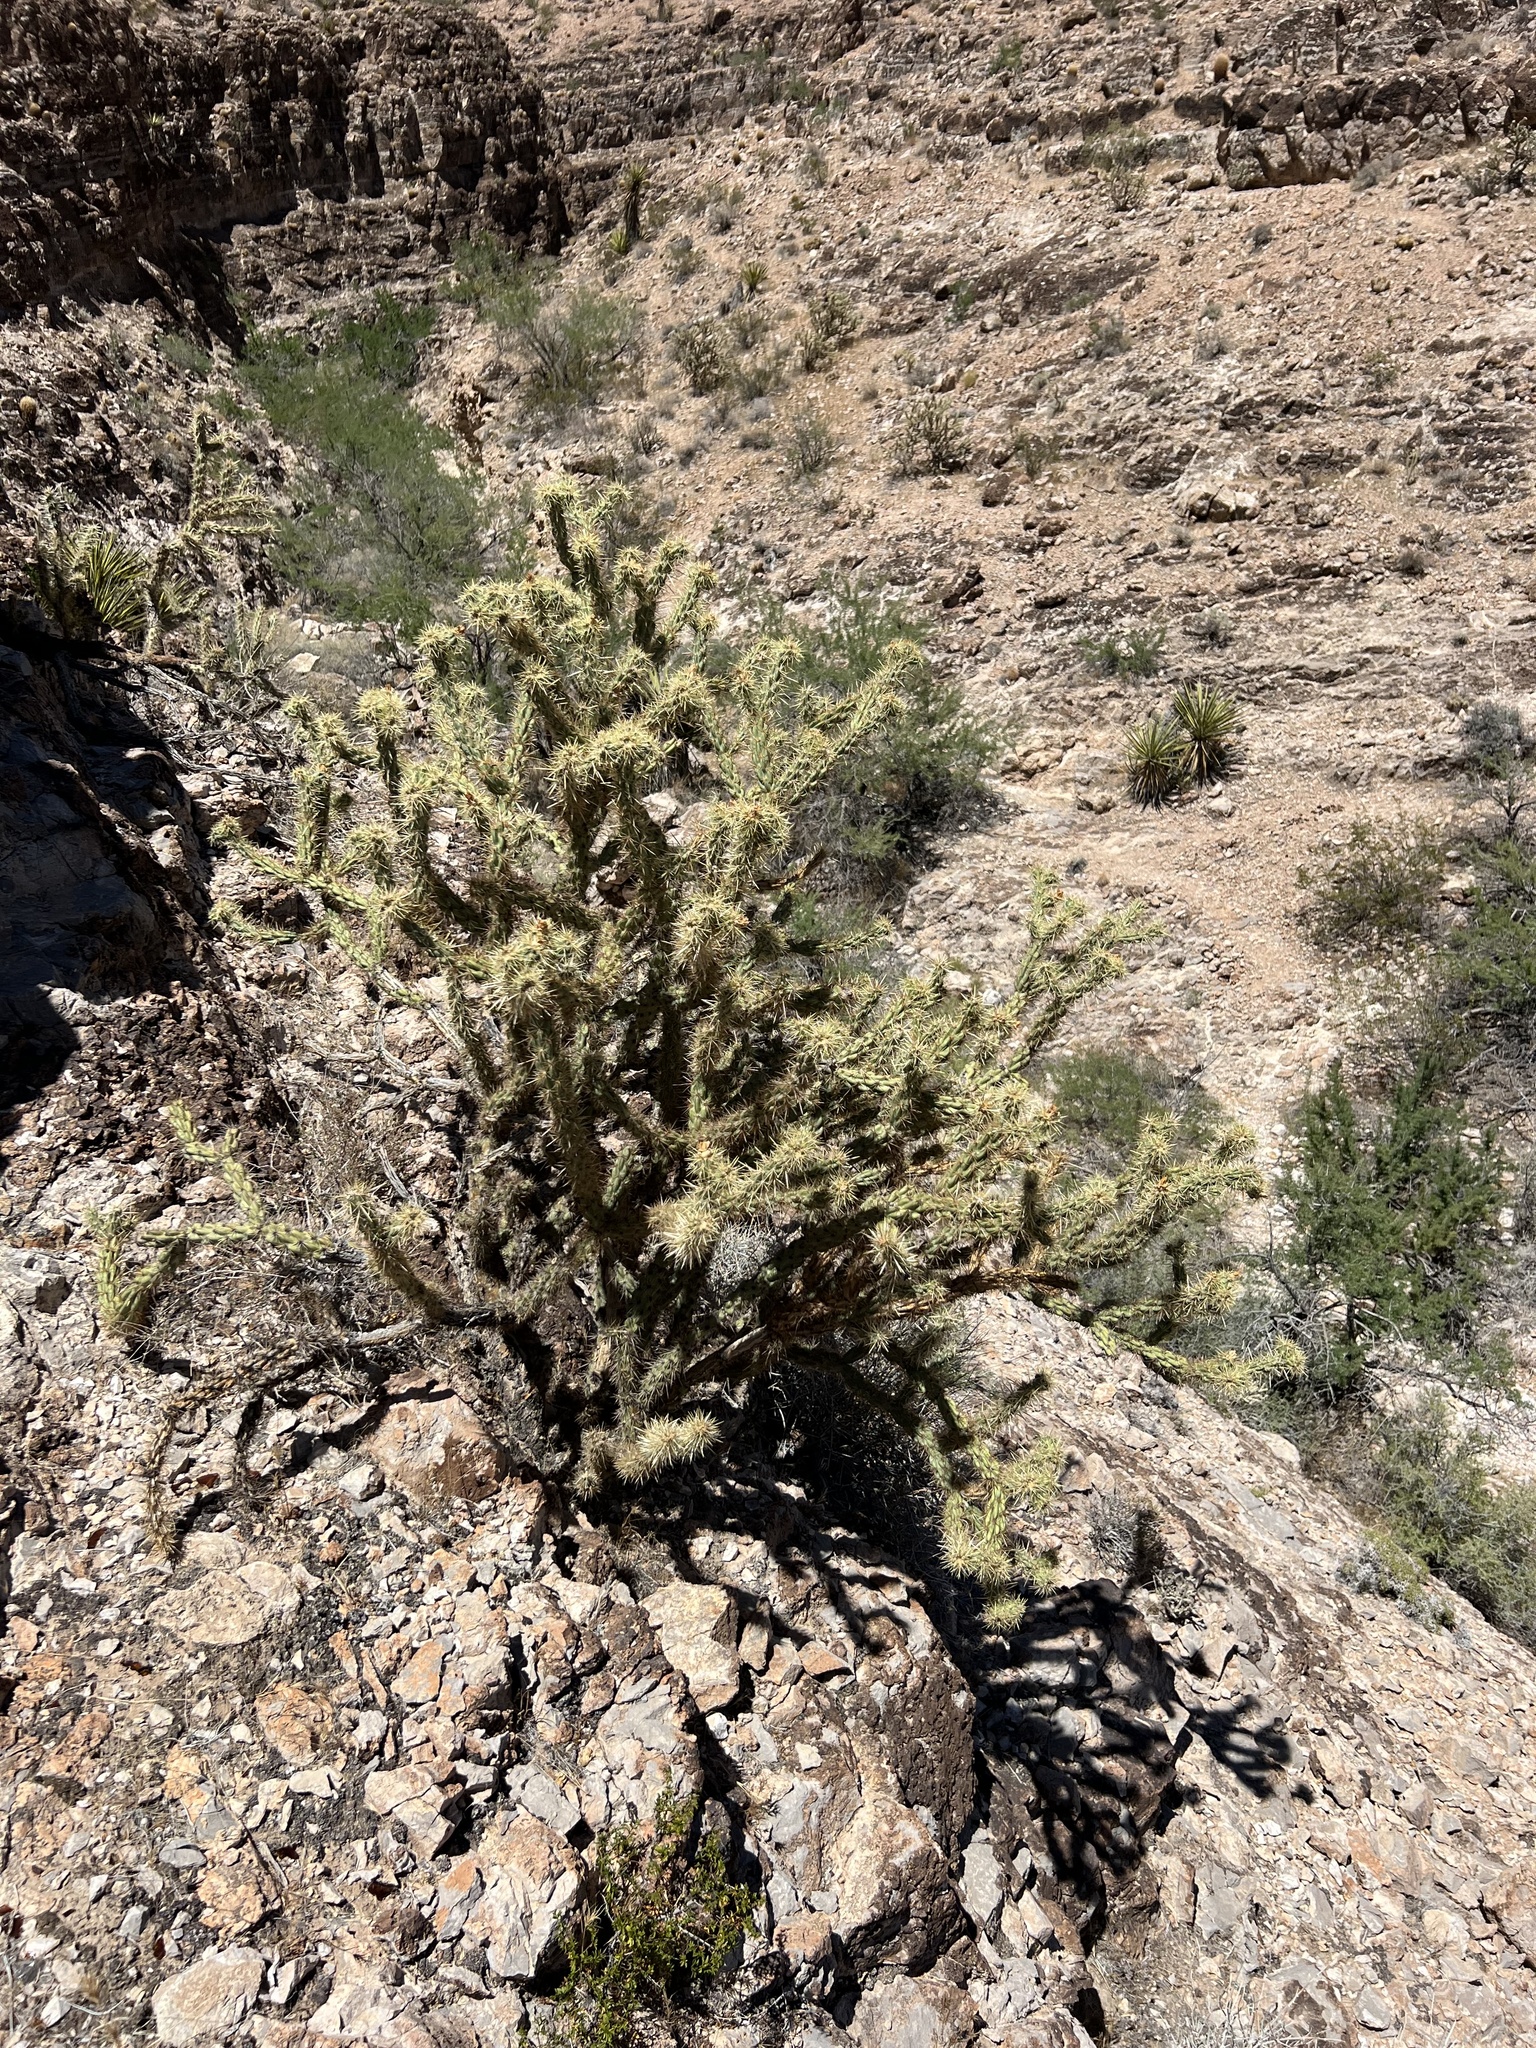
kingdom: Plantae
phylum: Tracheophyta
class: Magnoliopsida
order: Caryophyllales
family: Cactaceae
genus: Cylindropuntia
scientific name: Cylindropuntia acanthocarpa
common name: Buckhorn cholla
